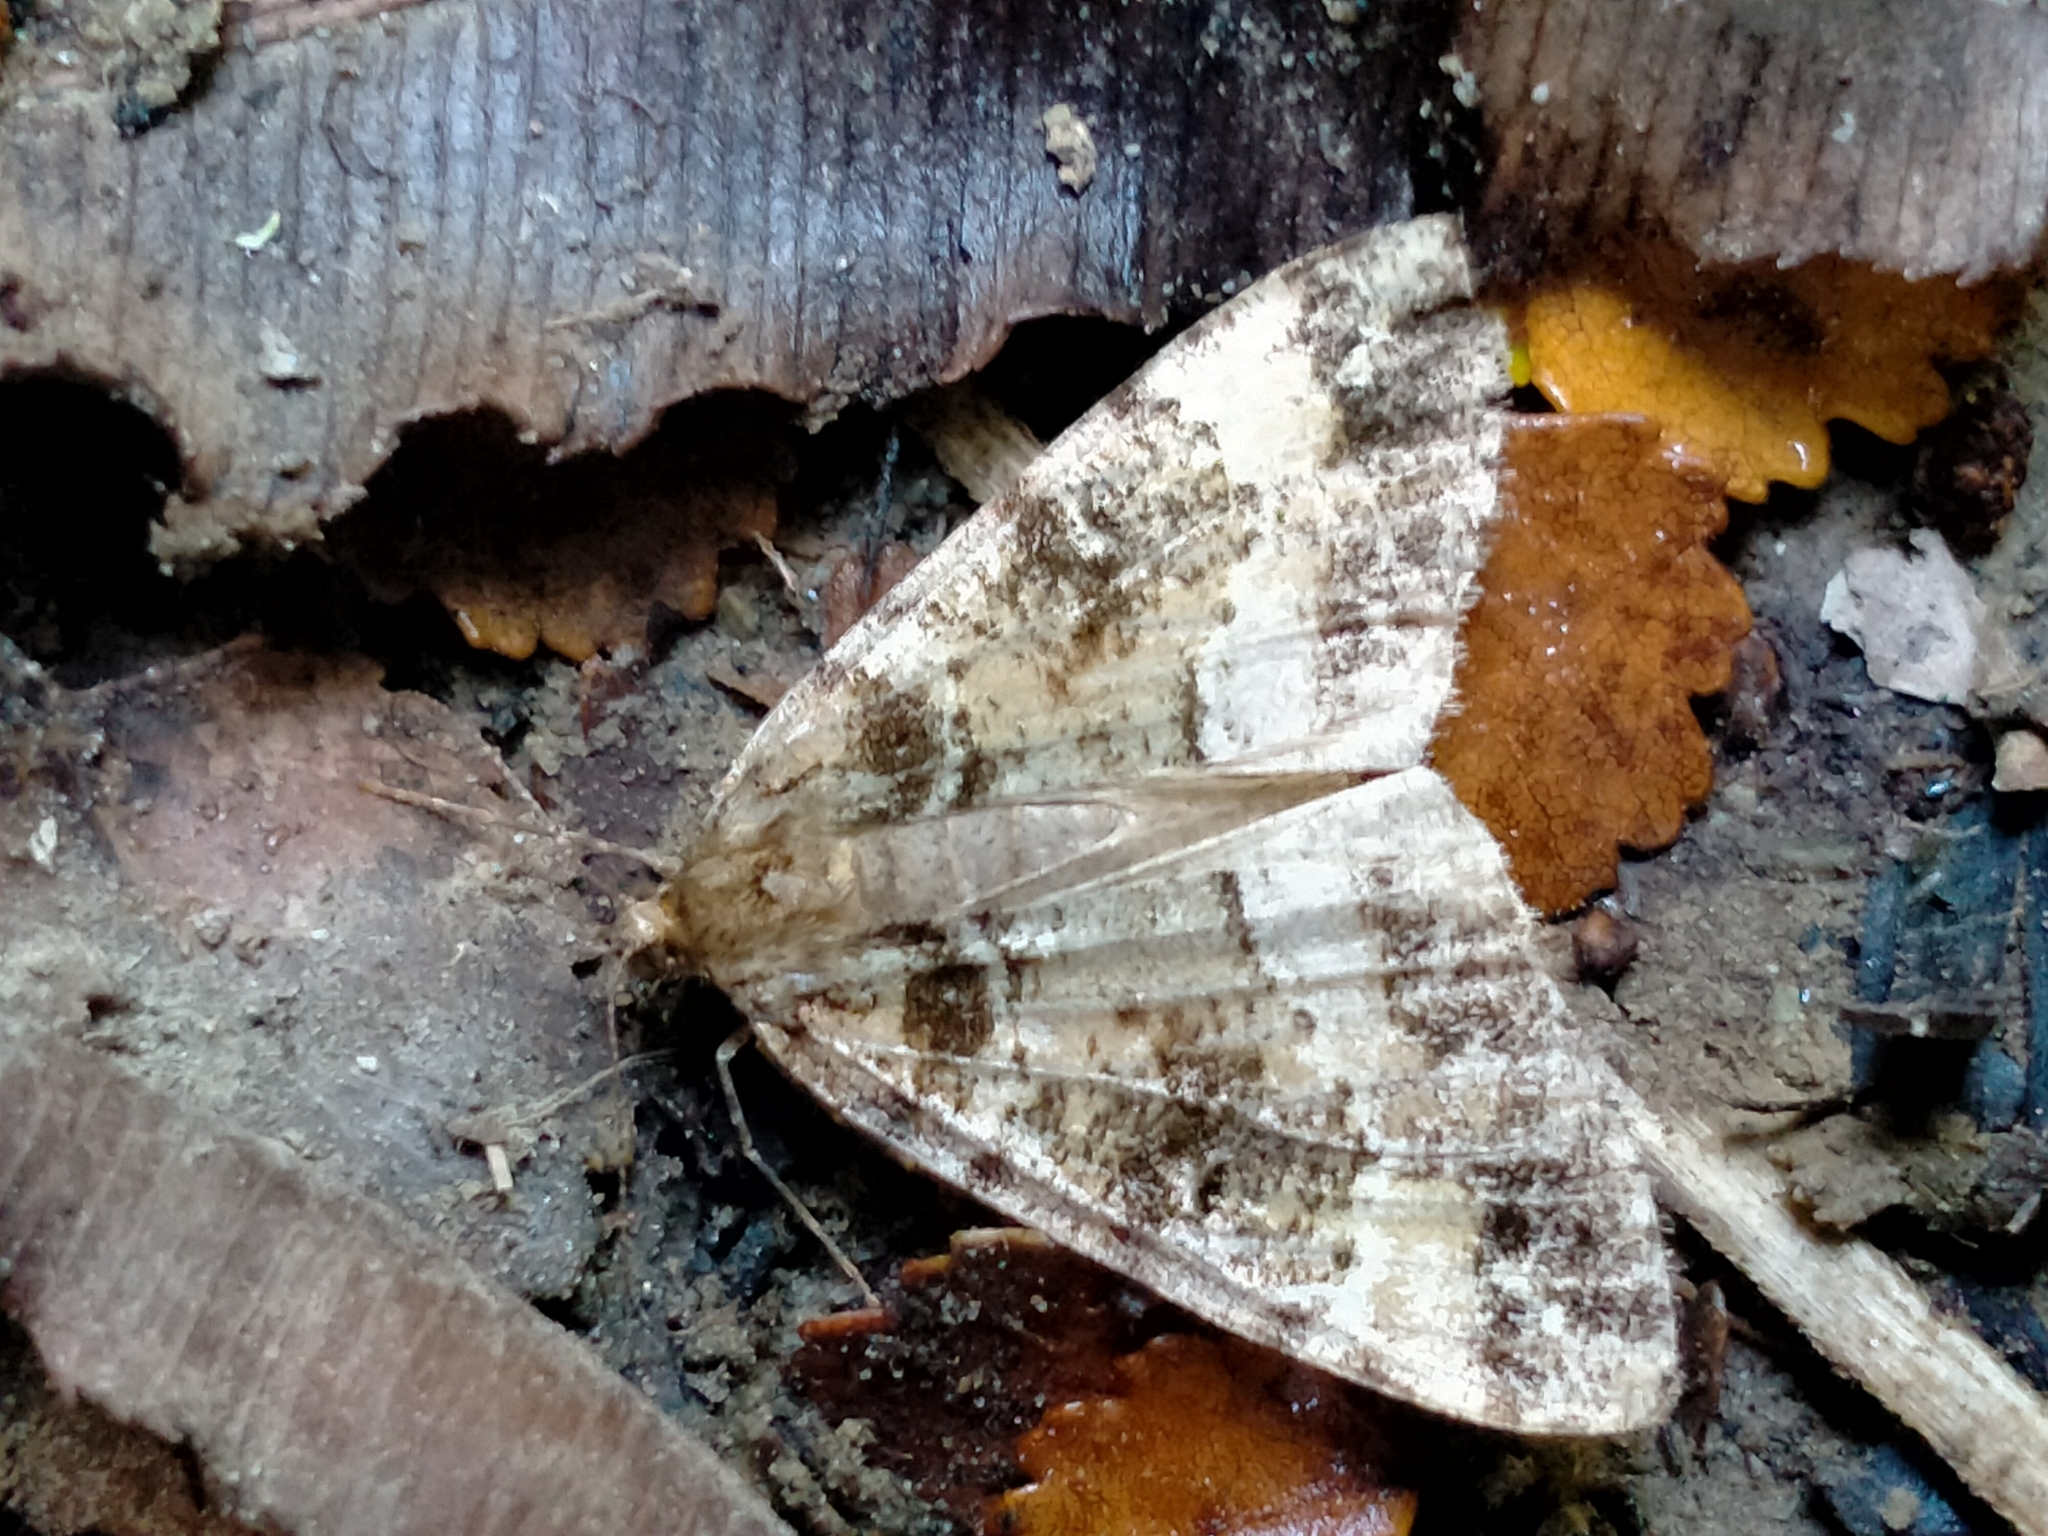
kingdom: Animalia
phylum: Arthropoda
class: Insecta
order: Lepidoptera
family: Geometridae
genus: Pseudocoremia
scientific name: Pseudocoremia productata
